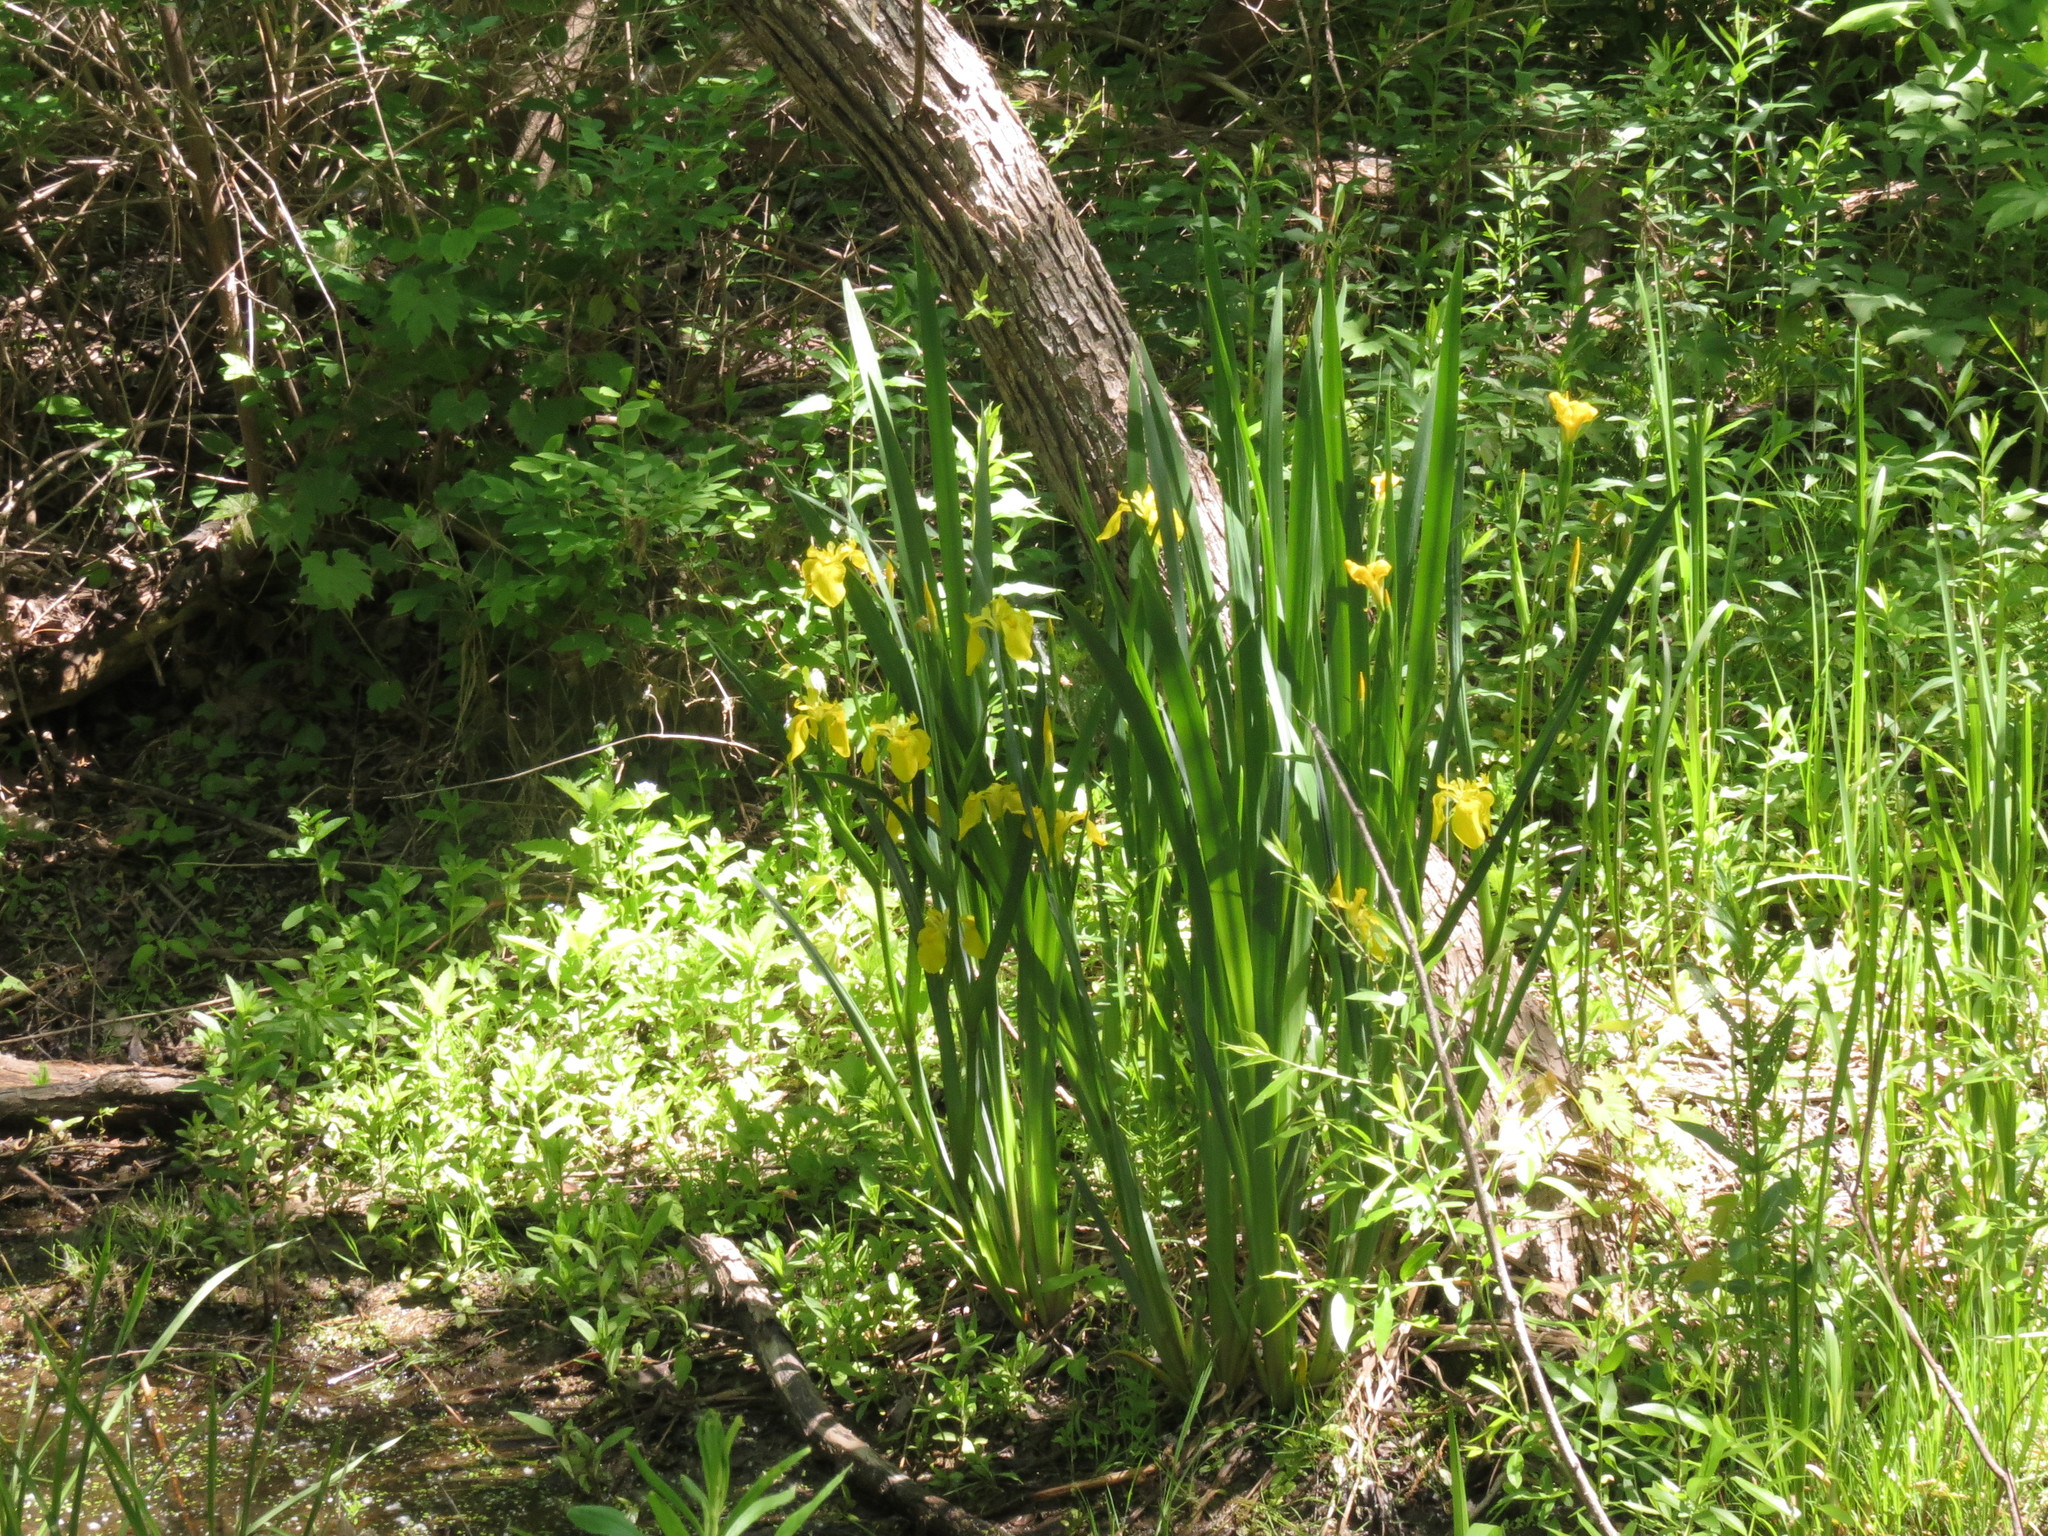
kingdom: Plantae
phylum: Tracheophyta
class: Liliopsida
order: Asparagales
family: Iridaceae
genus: Iris
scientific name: Iris pseudacorus
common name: Yellow flag
